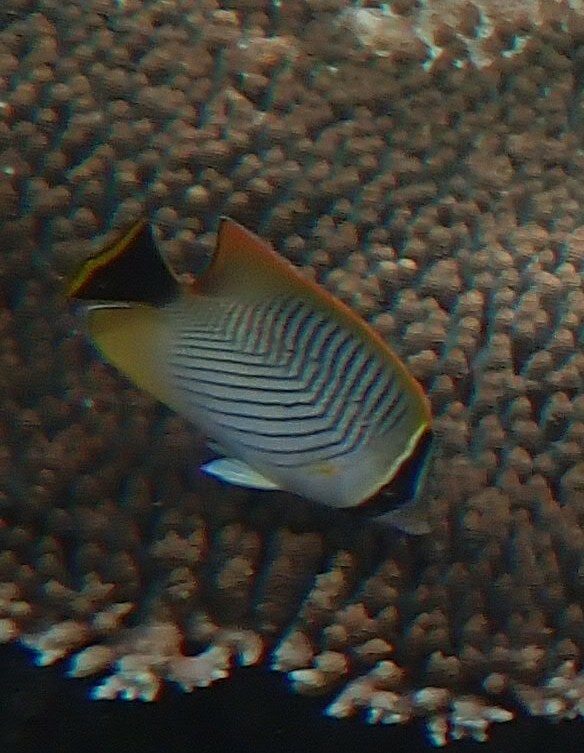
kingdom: Animalia
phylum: Chordata
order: Perciformes
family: Chaetodontidae
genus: Chaetodon
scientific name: Chaetodon trifascialis
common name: Chevroned butterflyfish
